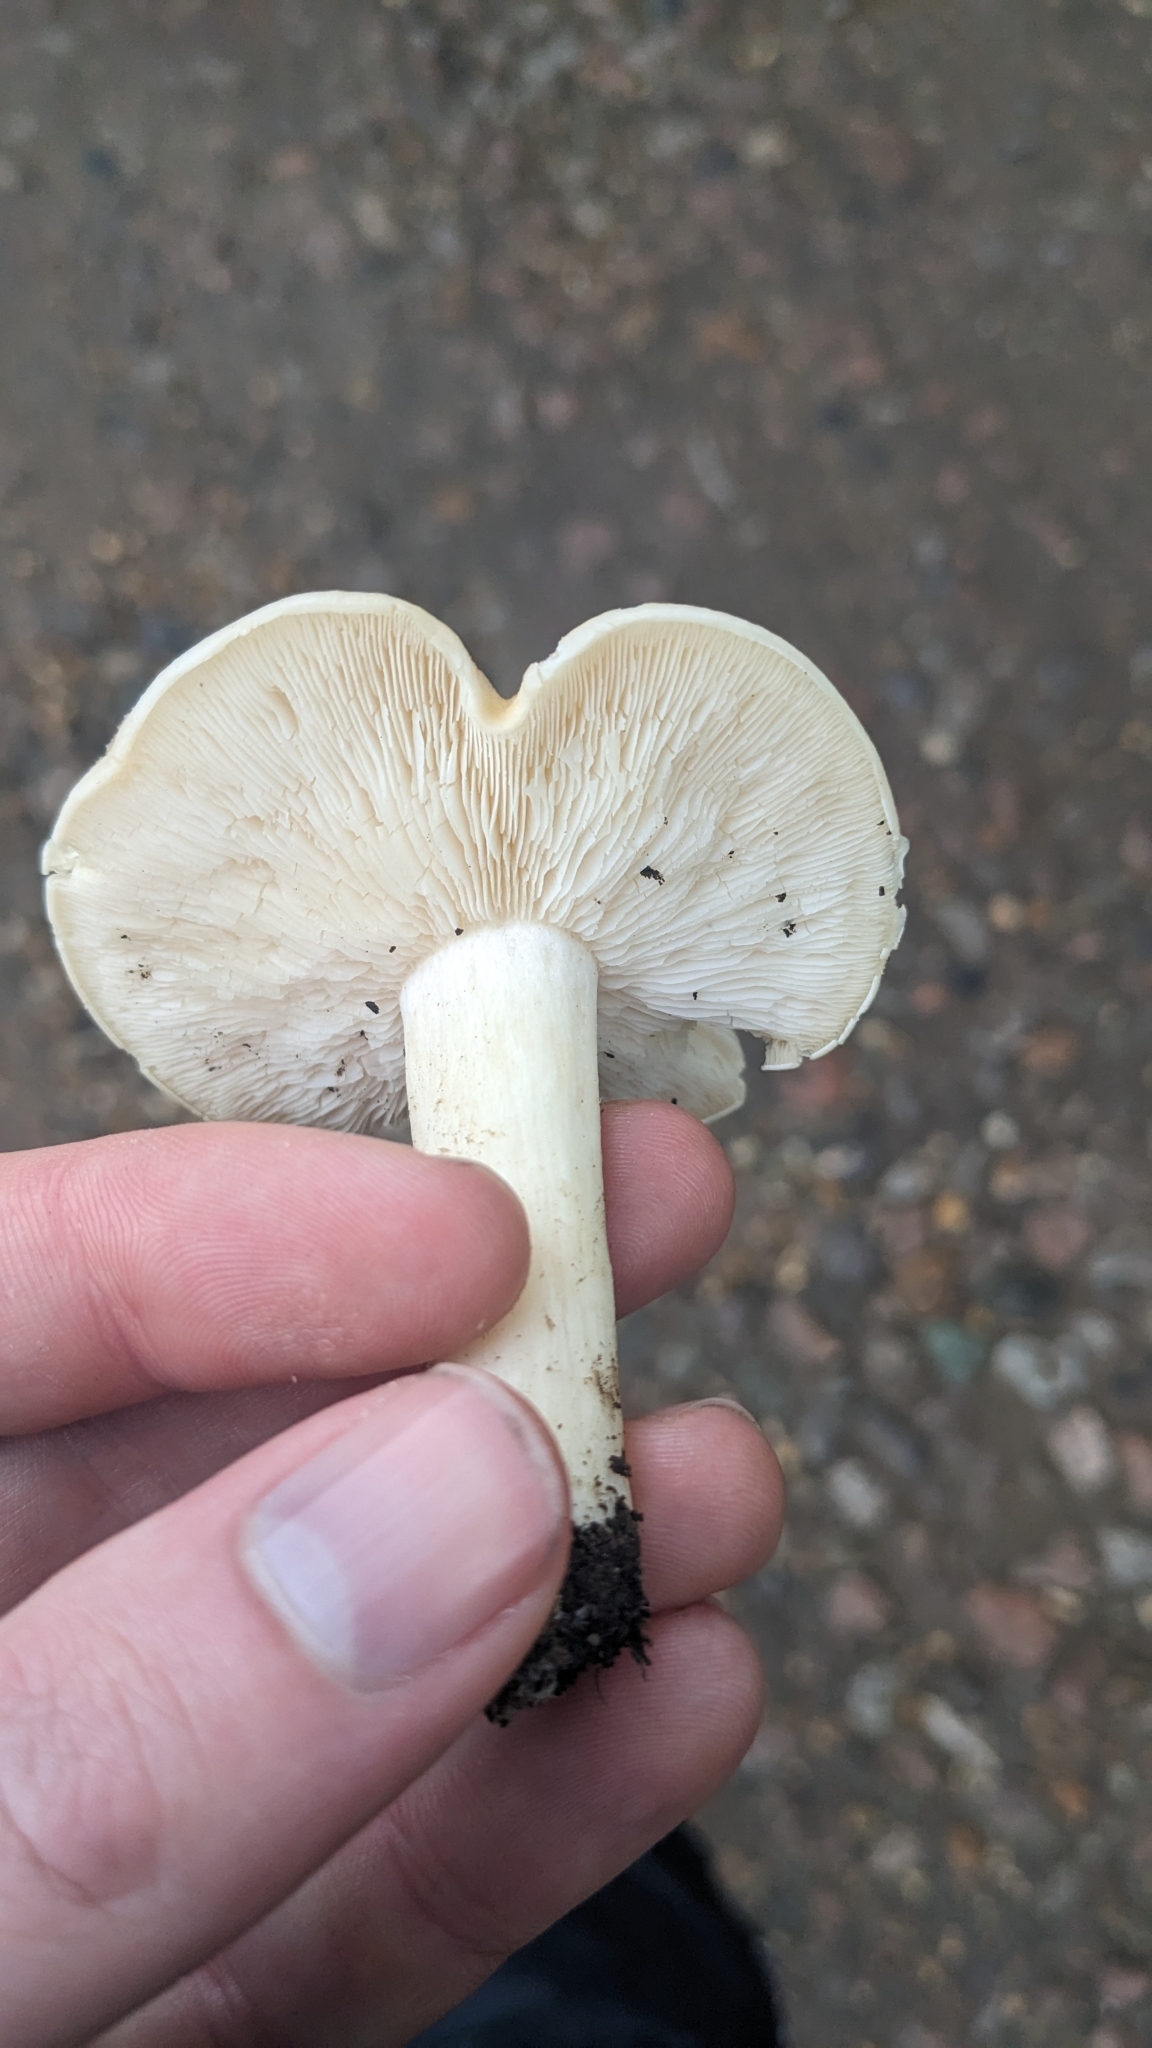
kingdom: Fungi
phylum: Basidiomycota
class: Agaricomycetes
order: Agaricales
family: Lyophyllaceae
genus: Calocybe
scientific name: Calocybe gambosa
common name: St. george's mushroom
